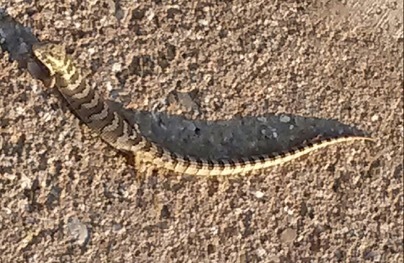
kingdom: Animalia
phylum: Chordata
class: Squamata
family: Anguidae
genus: Elgaria
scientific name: Elgaria kingii
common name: Madrean alligator lizard
